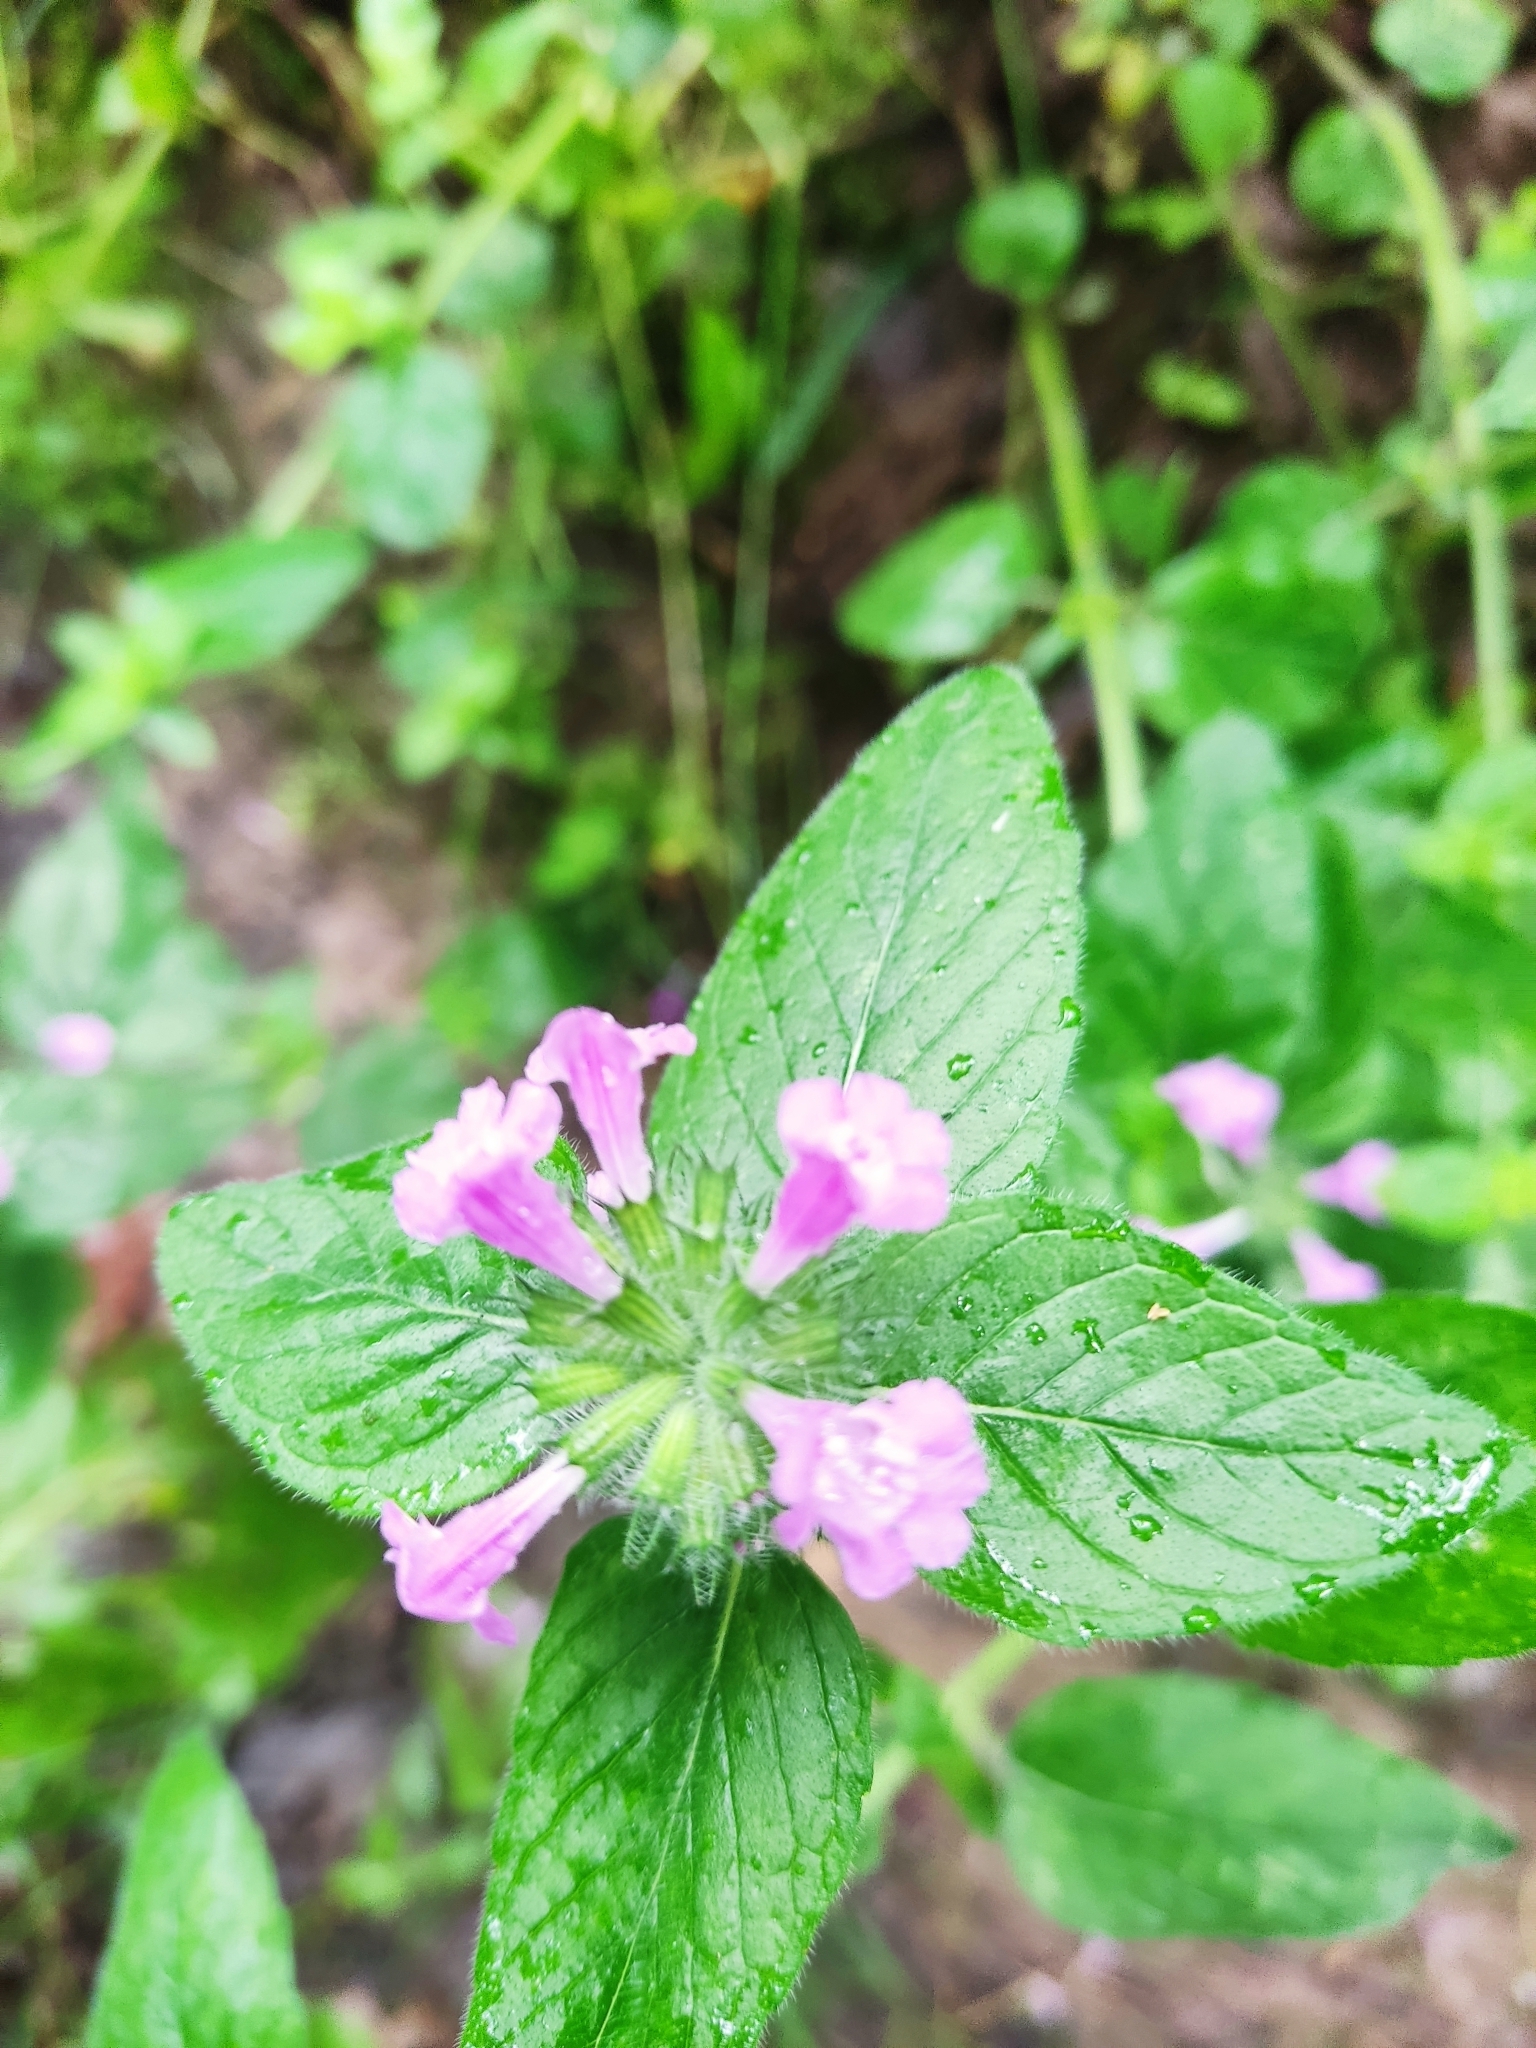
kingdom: Plantae
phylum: Tracheophyta
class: Magnoliopsida
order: Lamiales
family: Lamiaceae
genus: Clinopodium
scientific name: Clinopodium vulgare
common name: Wild basil
